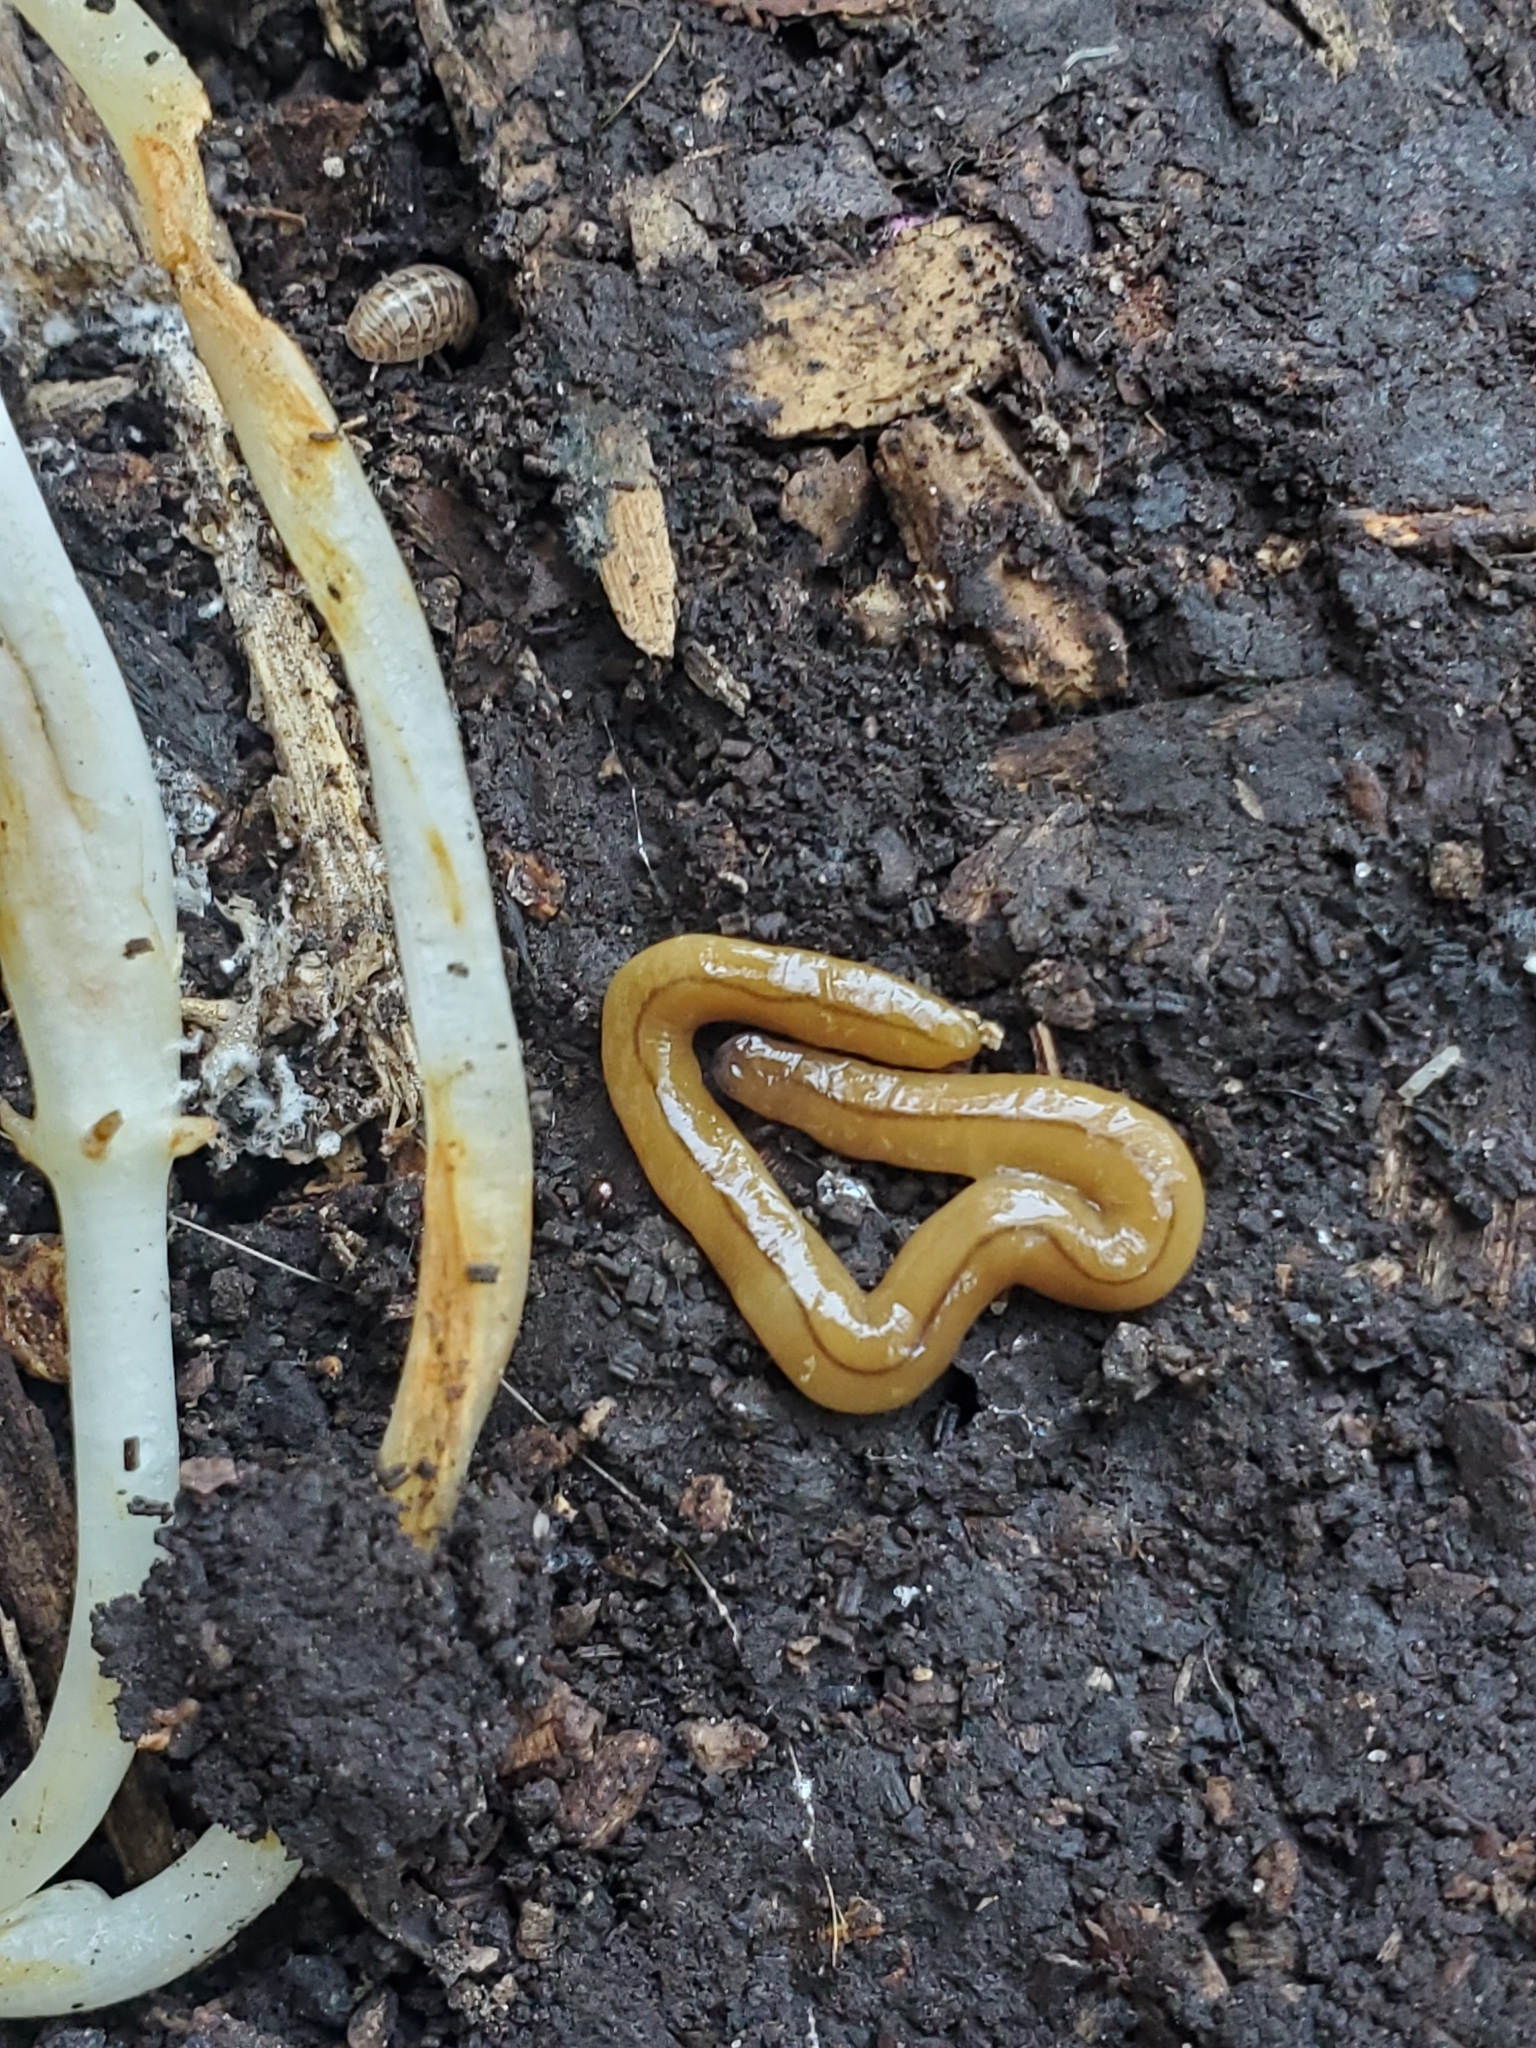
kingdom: Animalia
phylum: Platyhelminthes
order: Tricladida
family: Geoplanidae
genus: Bipalium
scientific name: Bipalium adventitium
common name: Land planarian
